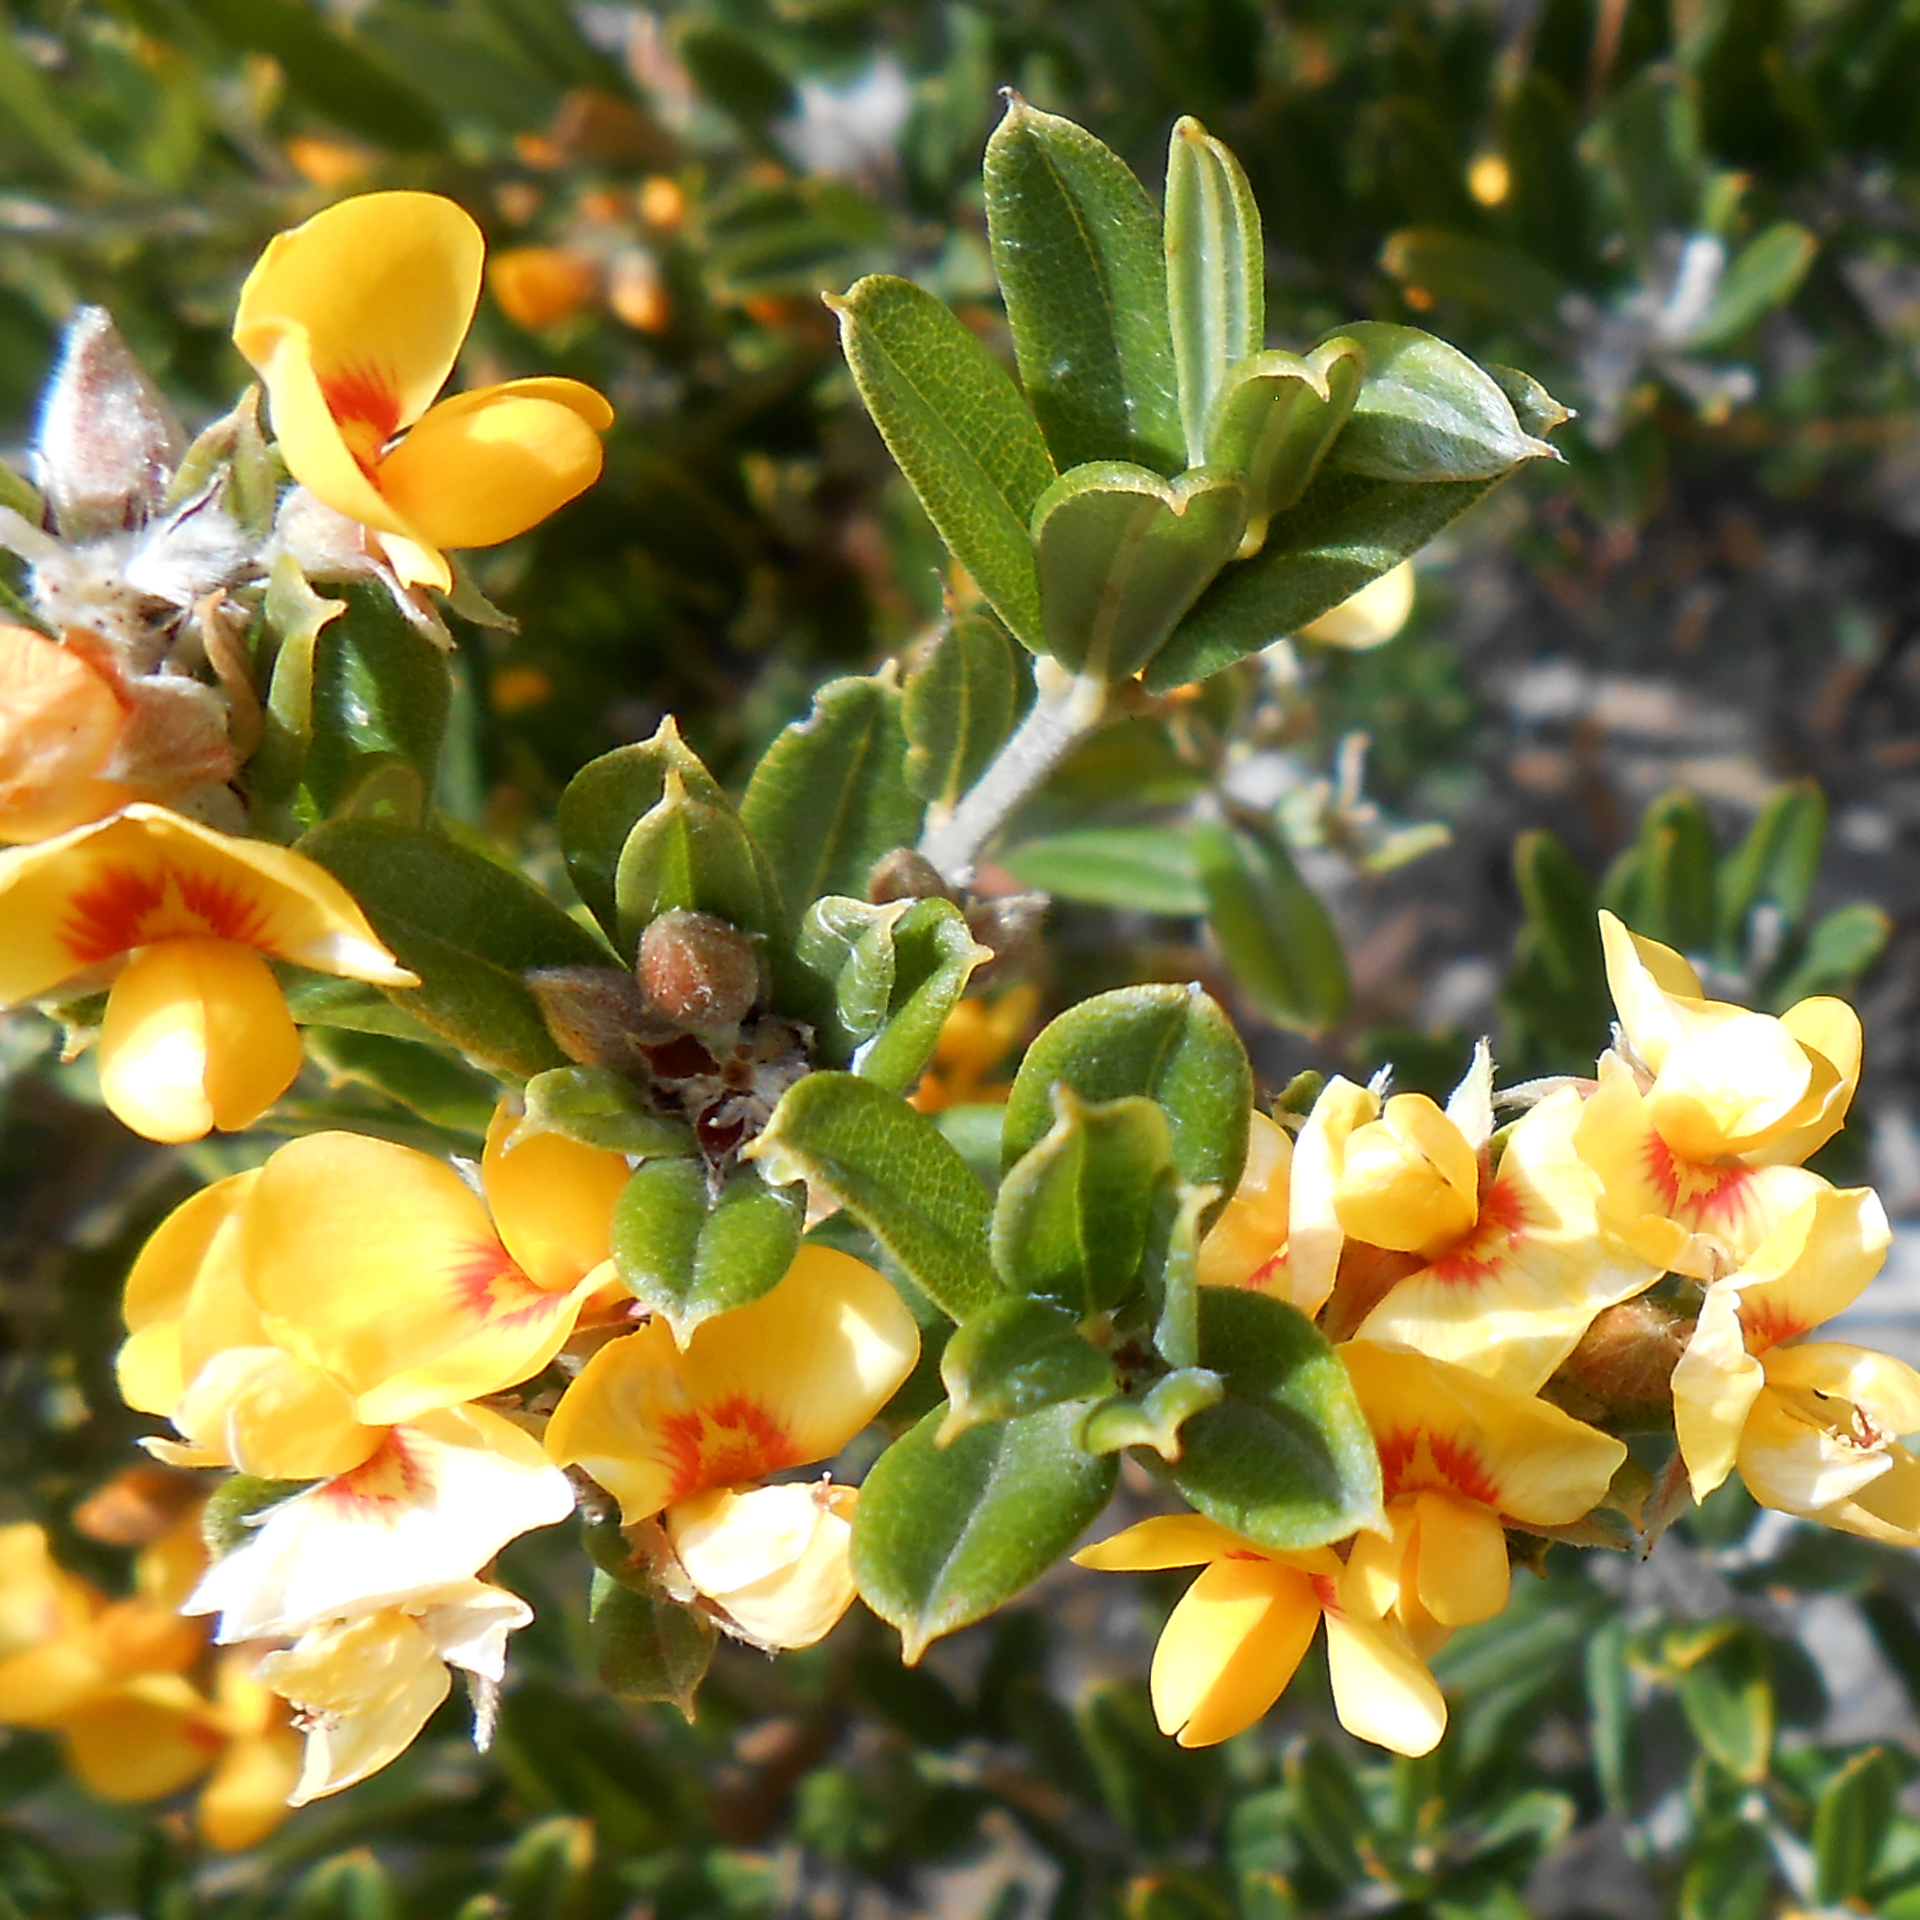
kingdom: Plantae
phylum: Tracheophyta
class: Magnoliopsida
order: Fabales
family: Fabaceae
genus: Oxylobium
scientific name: Oxylobium ellipticum
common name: Golden shaggy-pea
